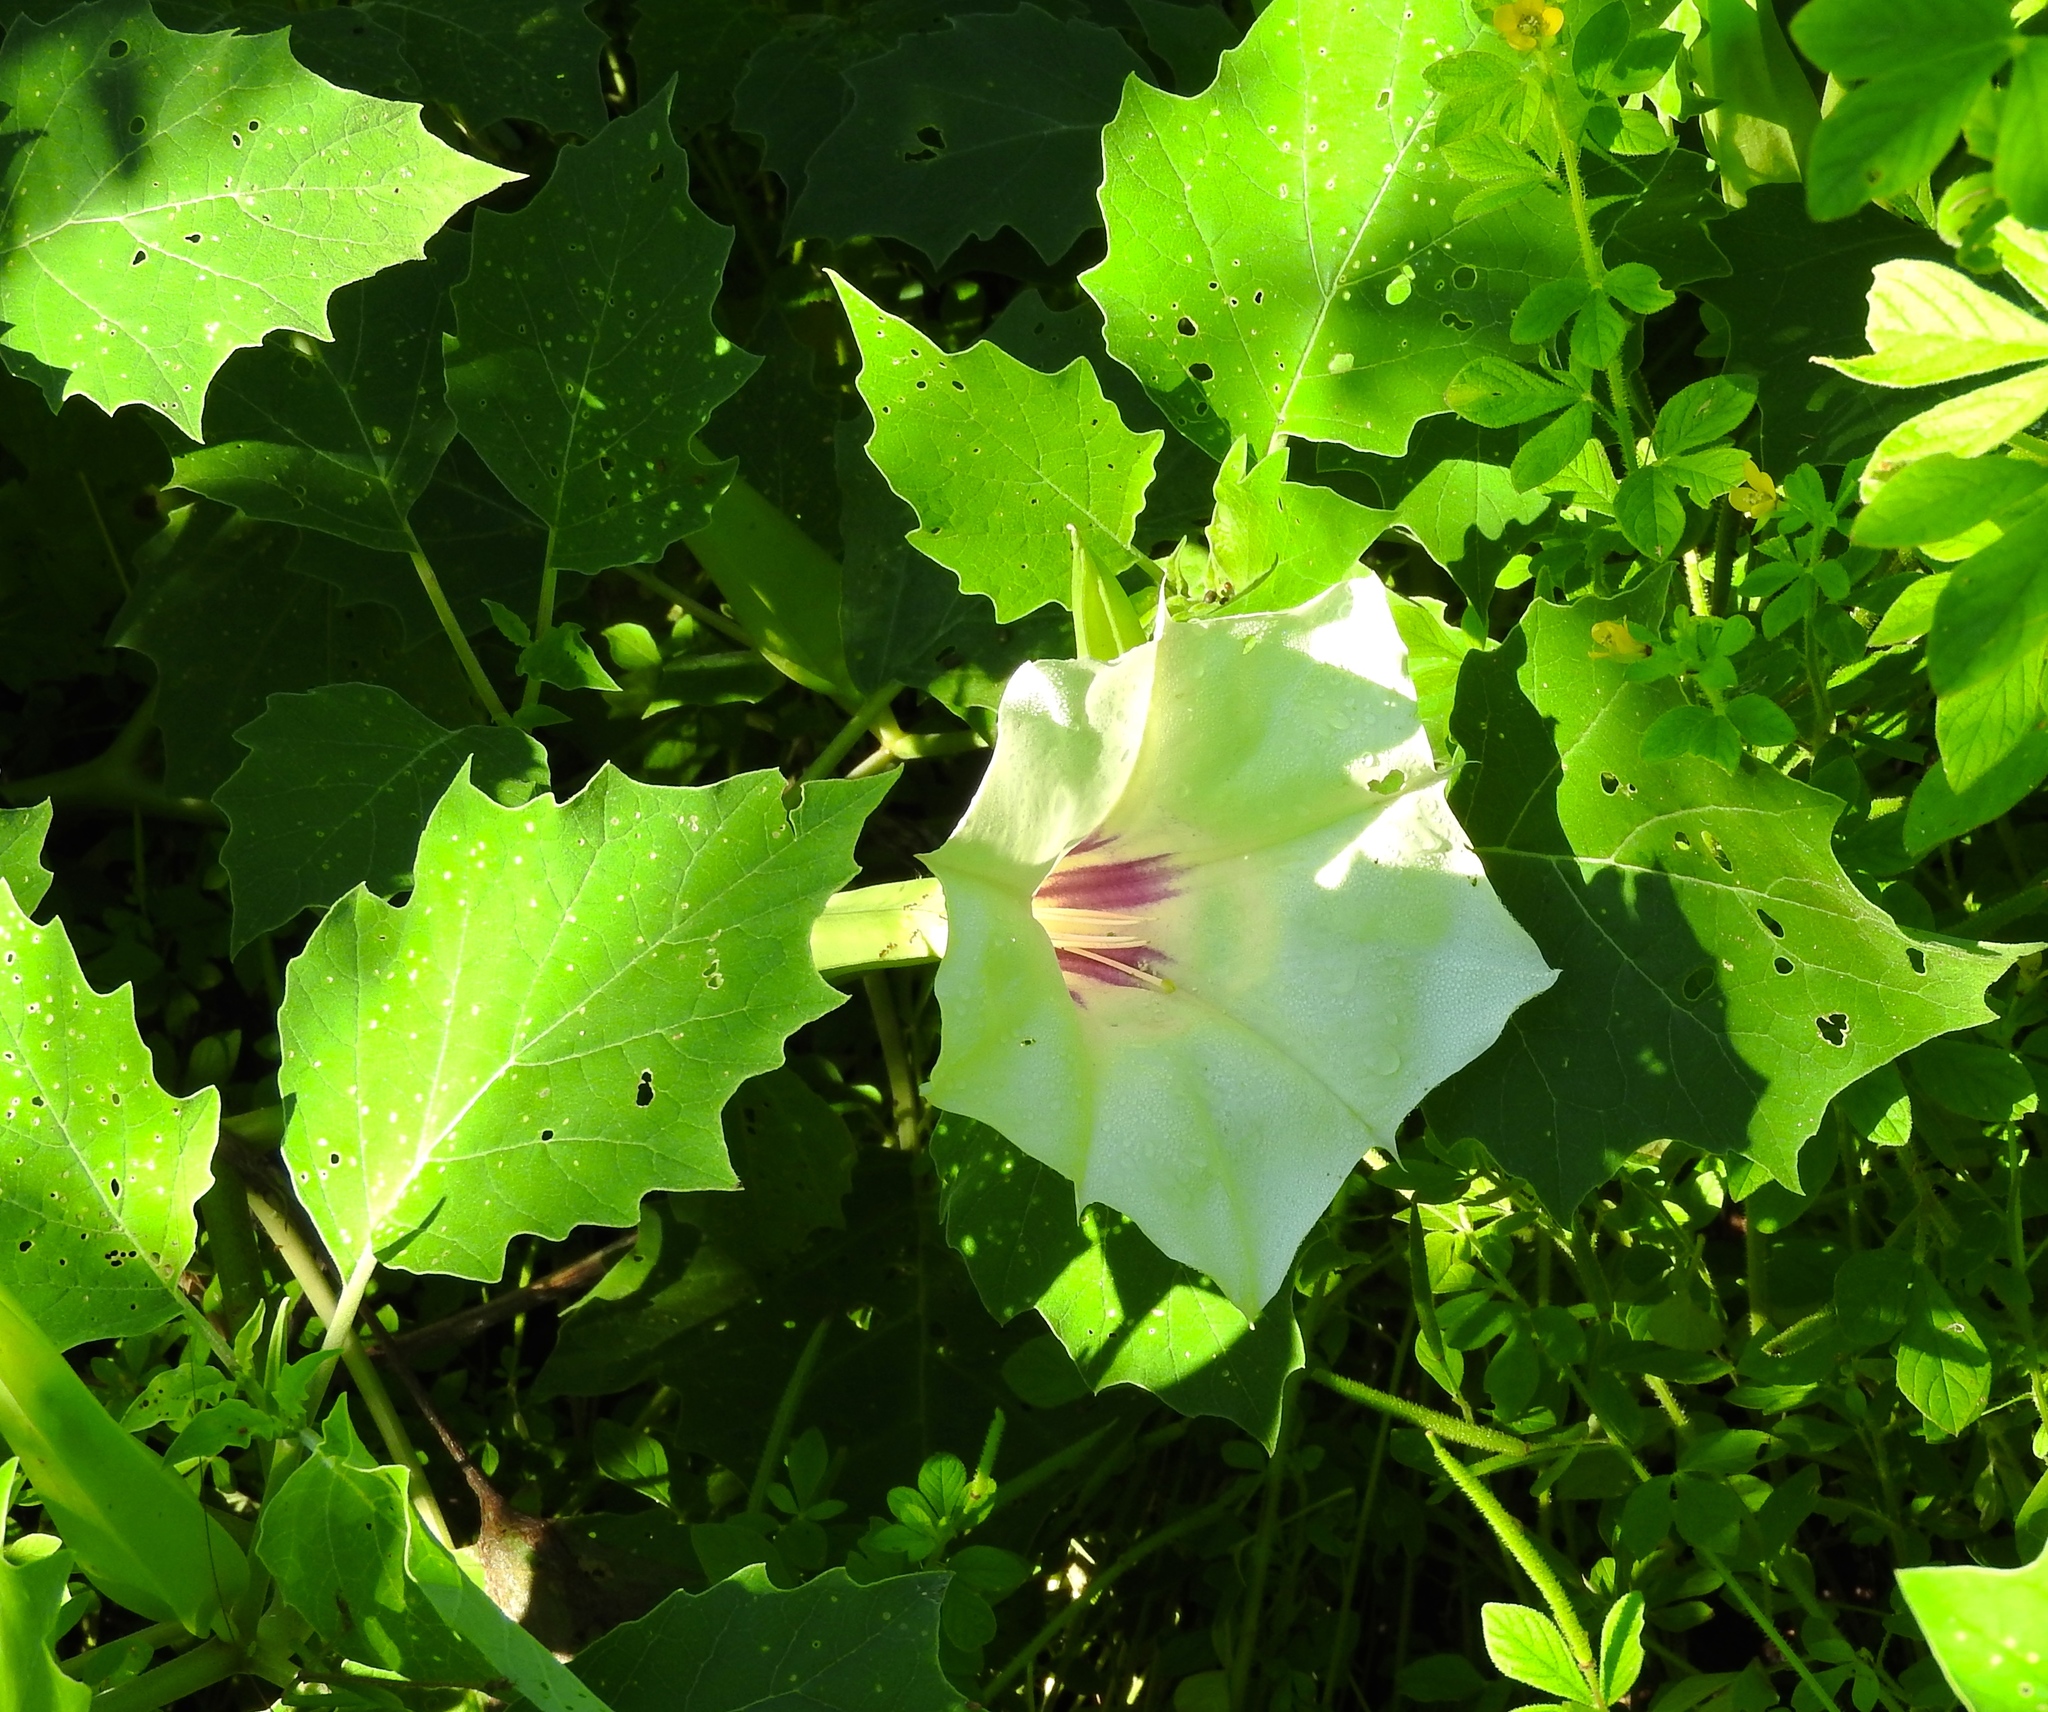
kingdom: Plantae
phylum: Tracheophyta
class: Magnoliopsida
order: Solanales
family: Solanaceae
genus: Datura
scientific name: Datura discolor
